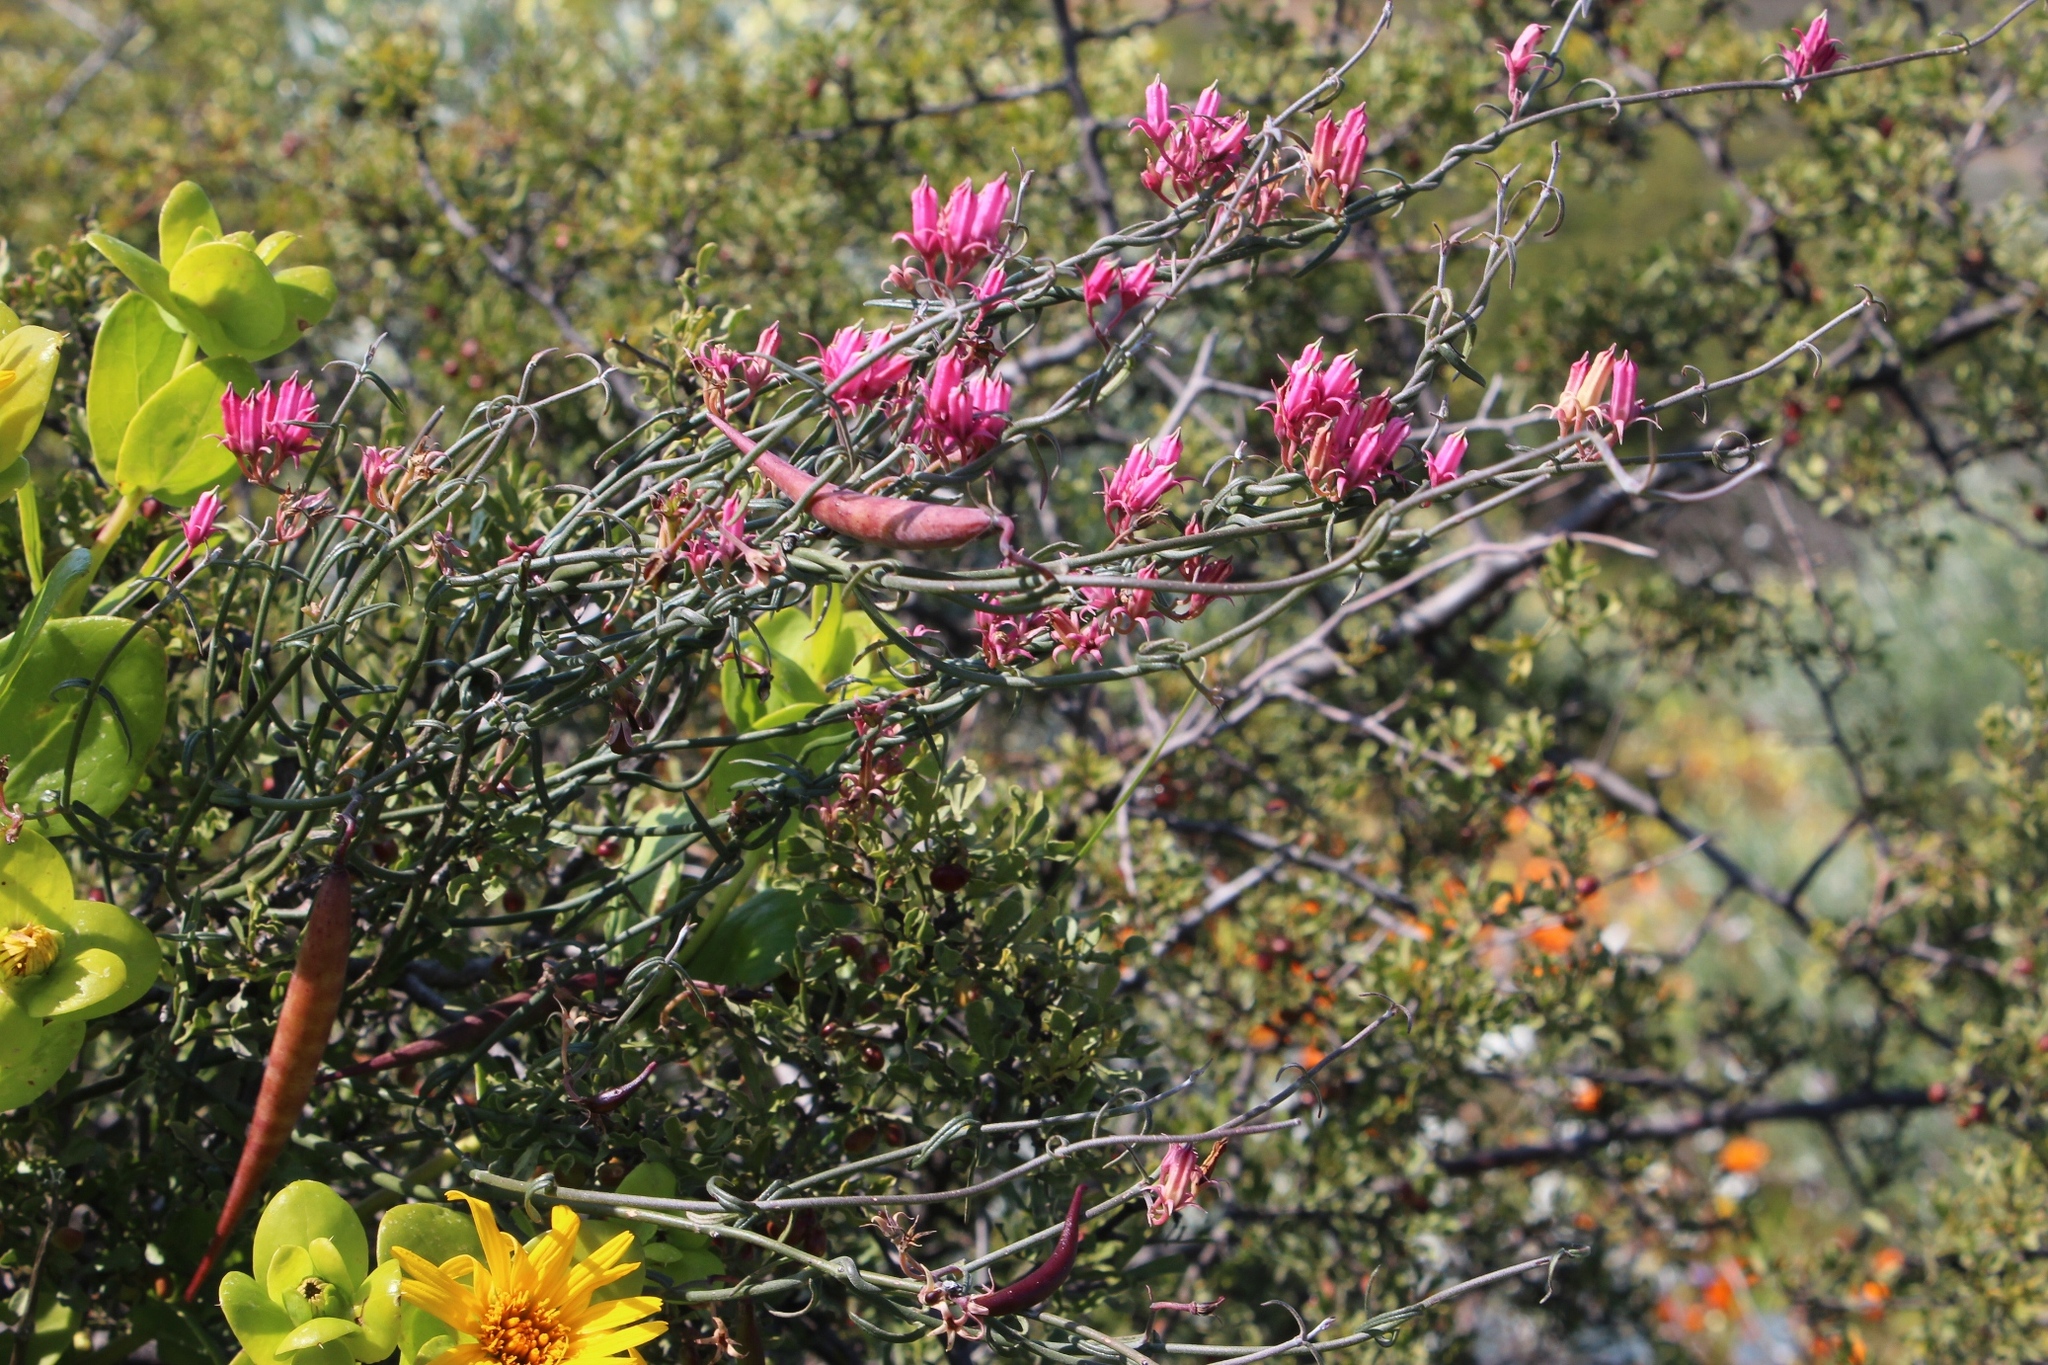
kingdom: Plantae
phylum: Tracheophyta
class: Magnoliopsida
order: Gentianales
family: Apocynaceae
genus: Microloma
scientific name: Microloma sagittatum
